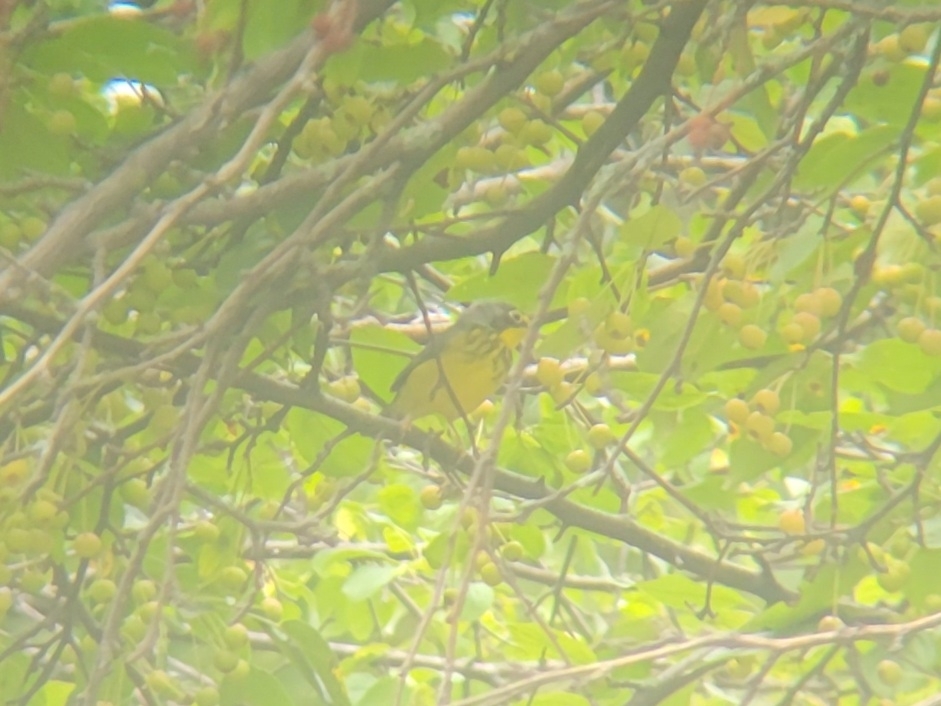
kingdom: Animalia
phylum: Chordata
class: Aves
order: Passeriformes
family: Parulidae
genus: Cardellina
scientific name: Cardellina canadensis
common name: Canada warbler
